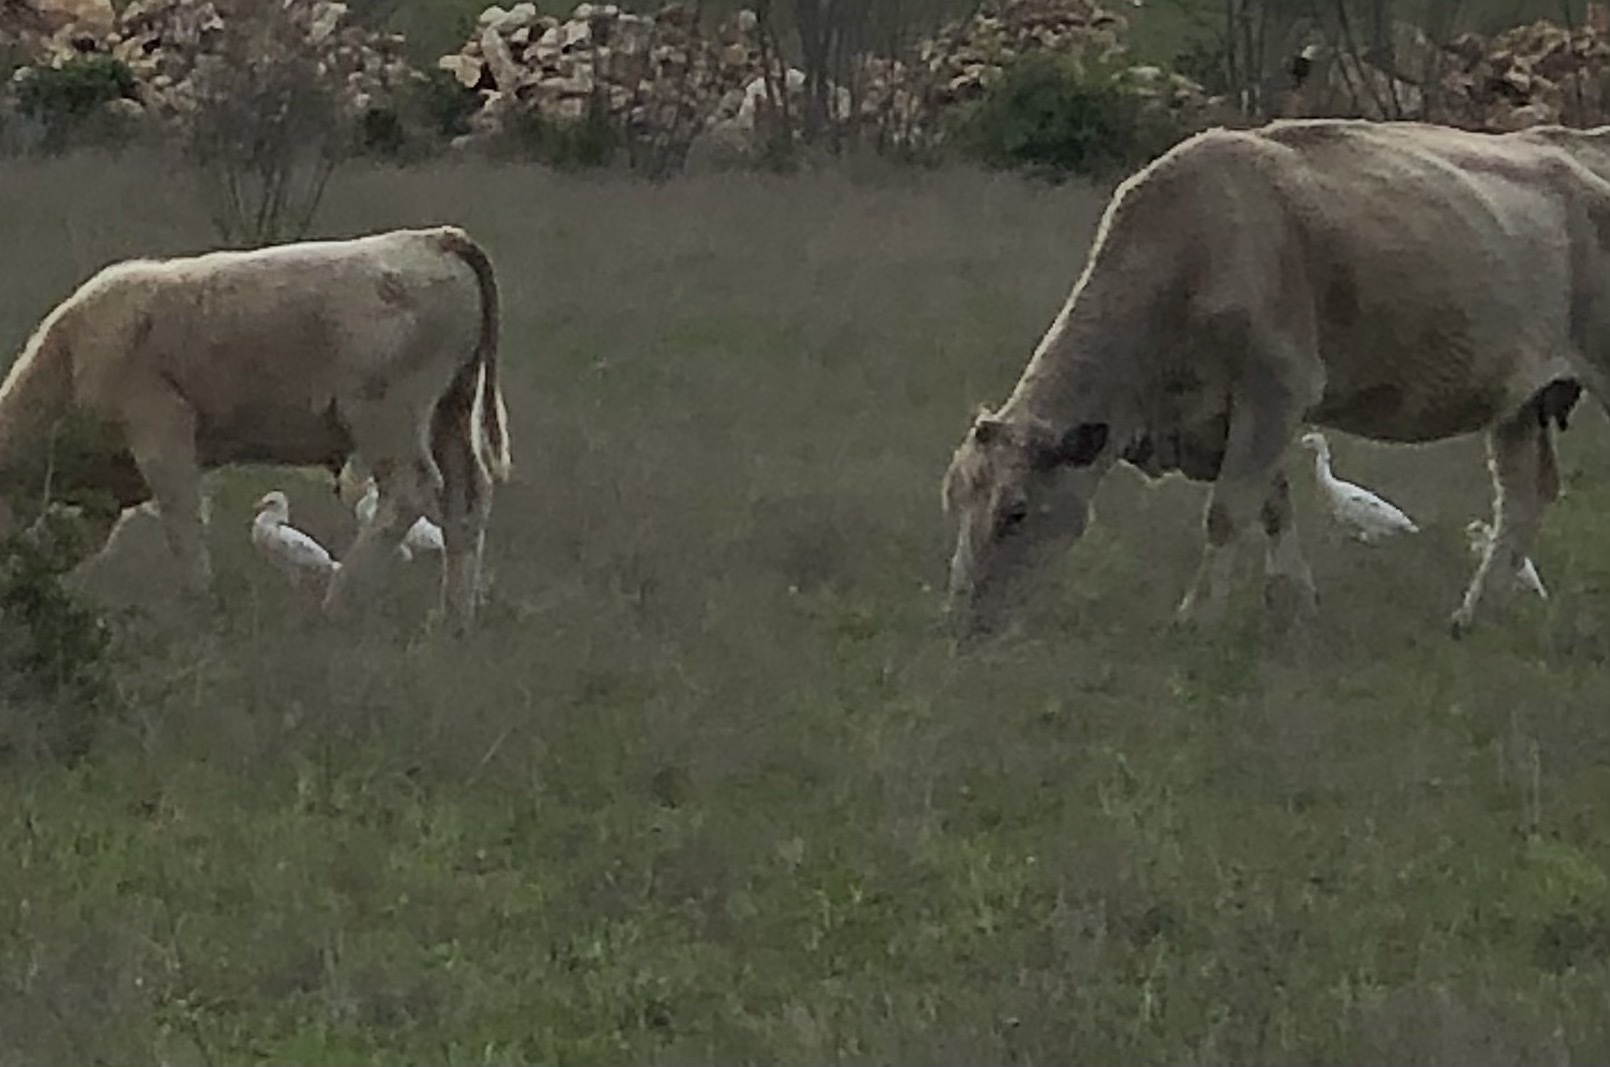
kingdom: Animalia
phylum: Chordata
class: Aves
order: Pelecaniformes
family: Ardeidae
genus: Bubulcus
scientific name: Bubulcus ibis
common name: Cattle egret
